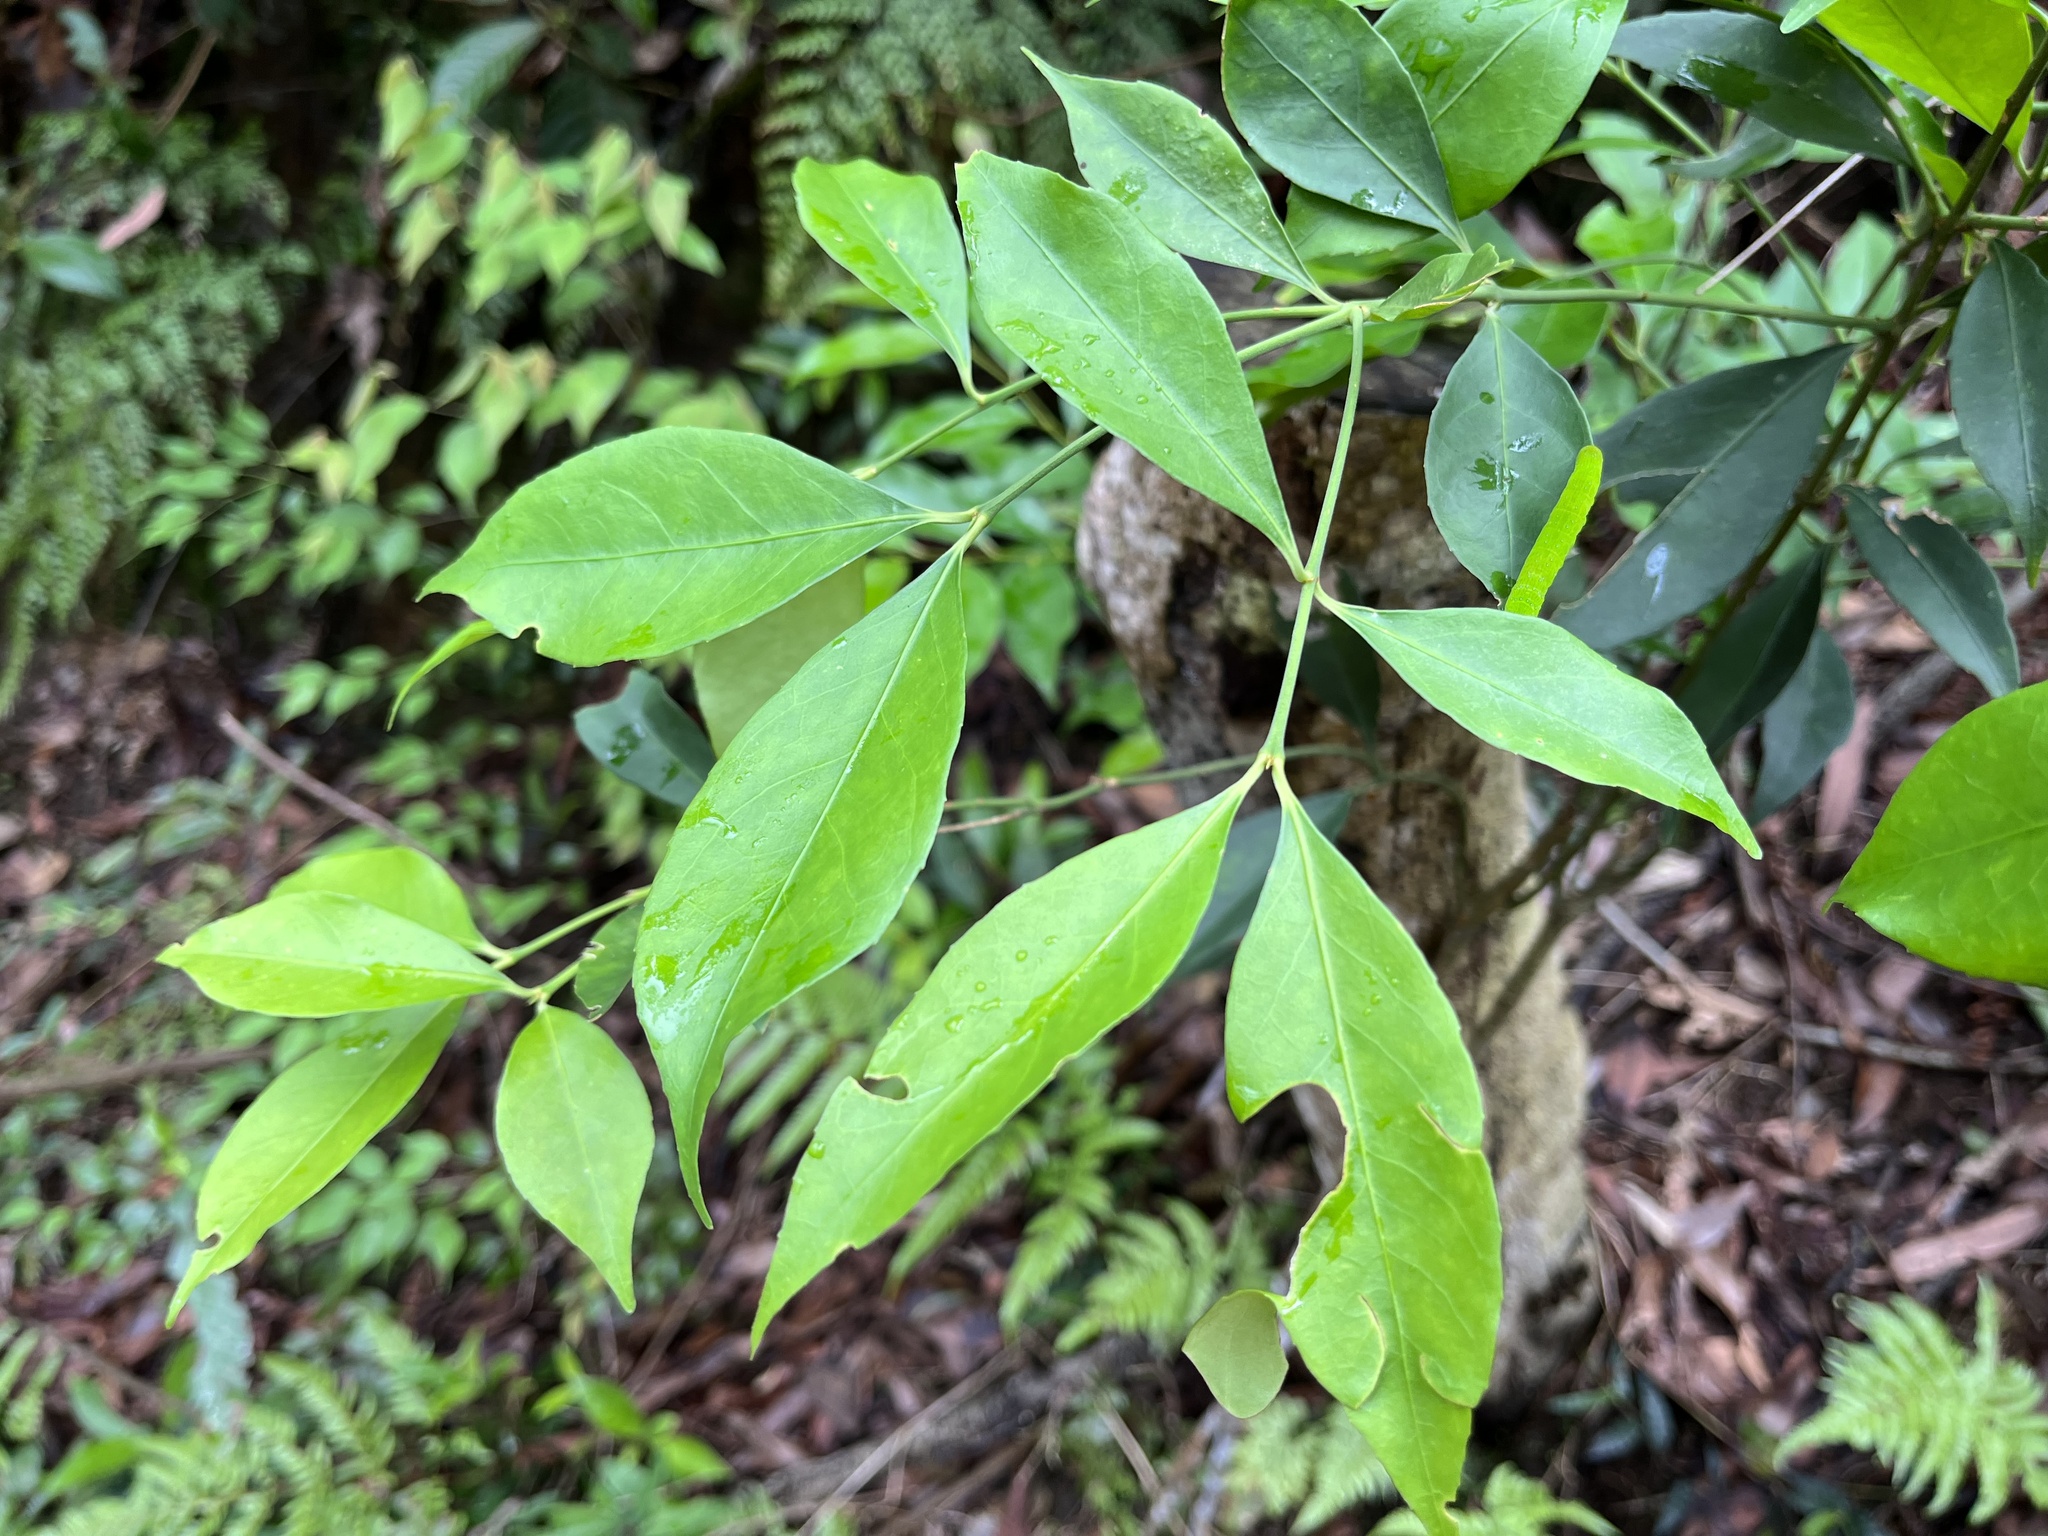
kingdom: Plantae
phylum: Tracheophyta
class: Magnoliopsida
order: Celastrales
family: Celastraceae
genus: Euonymus
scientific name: Euonymus laxiflorus
